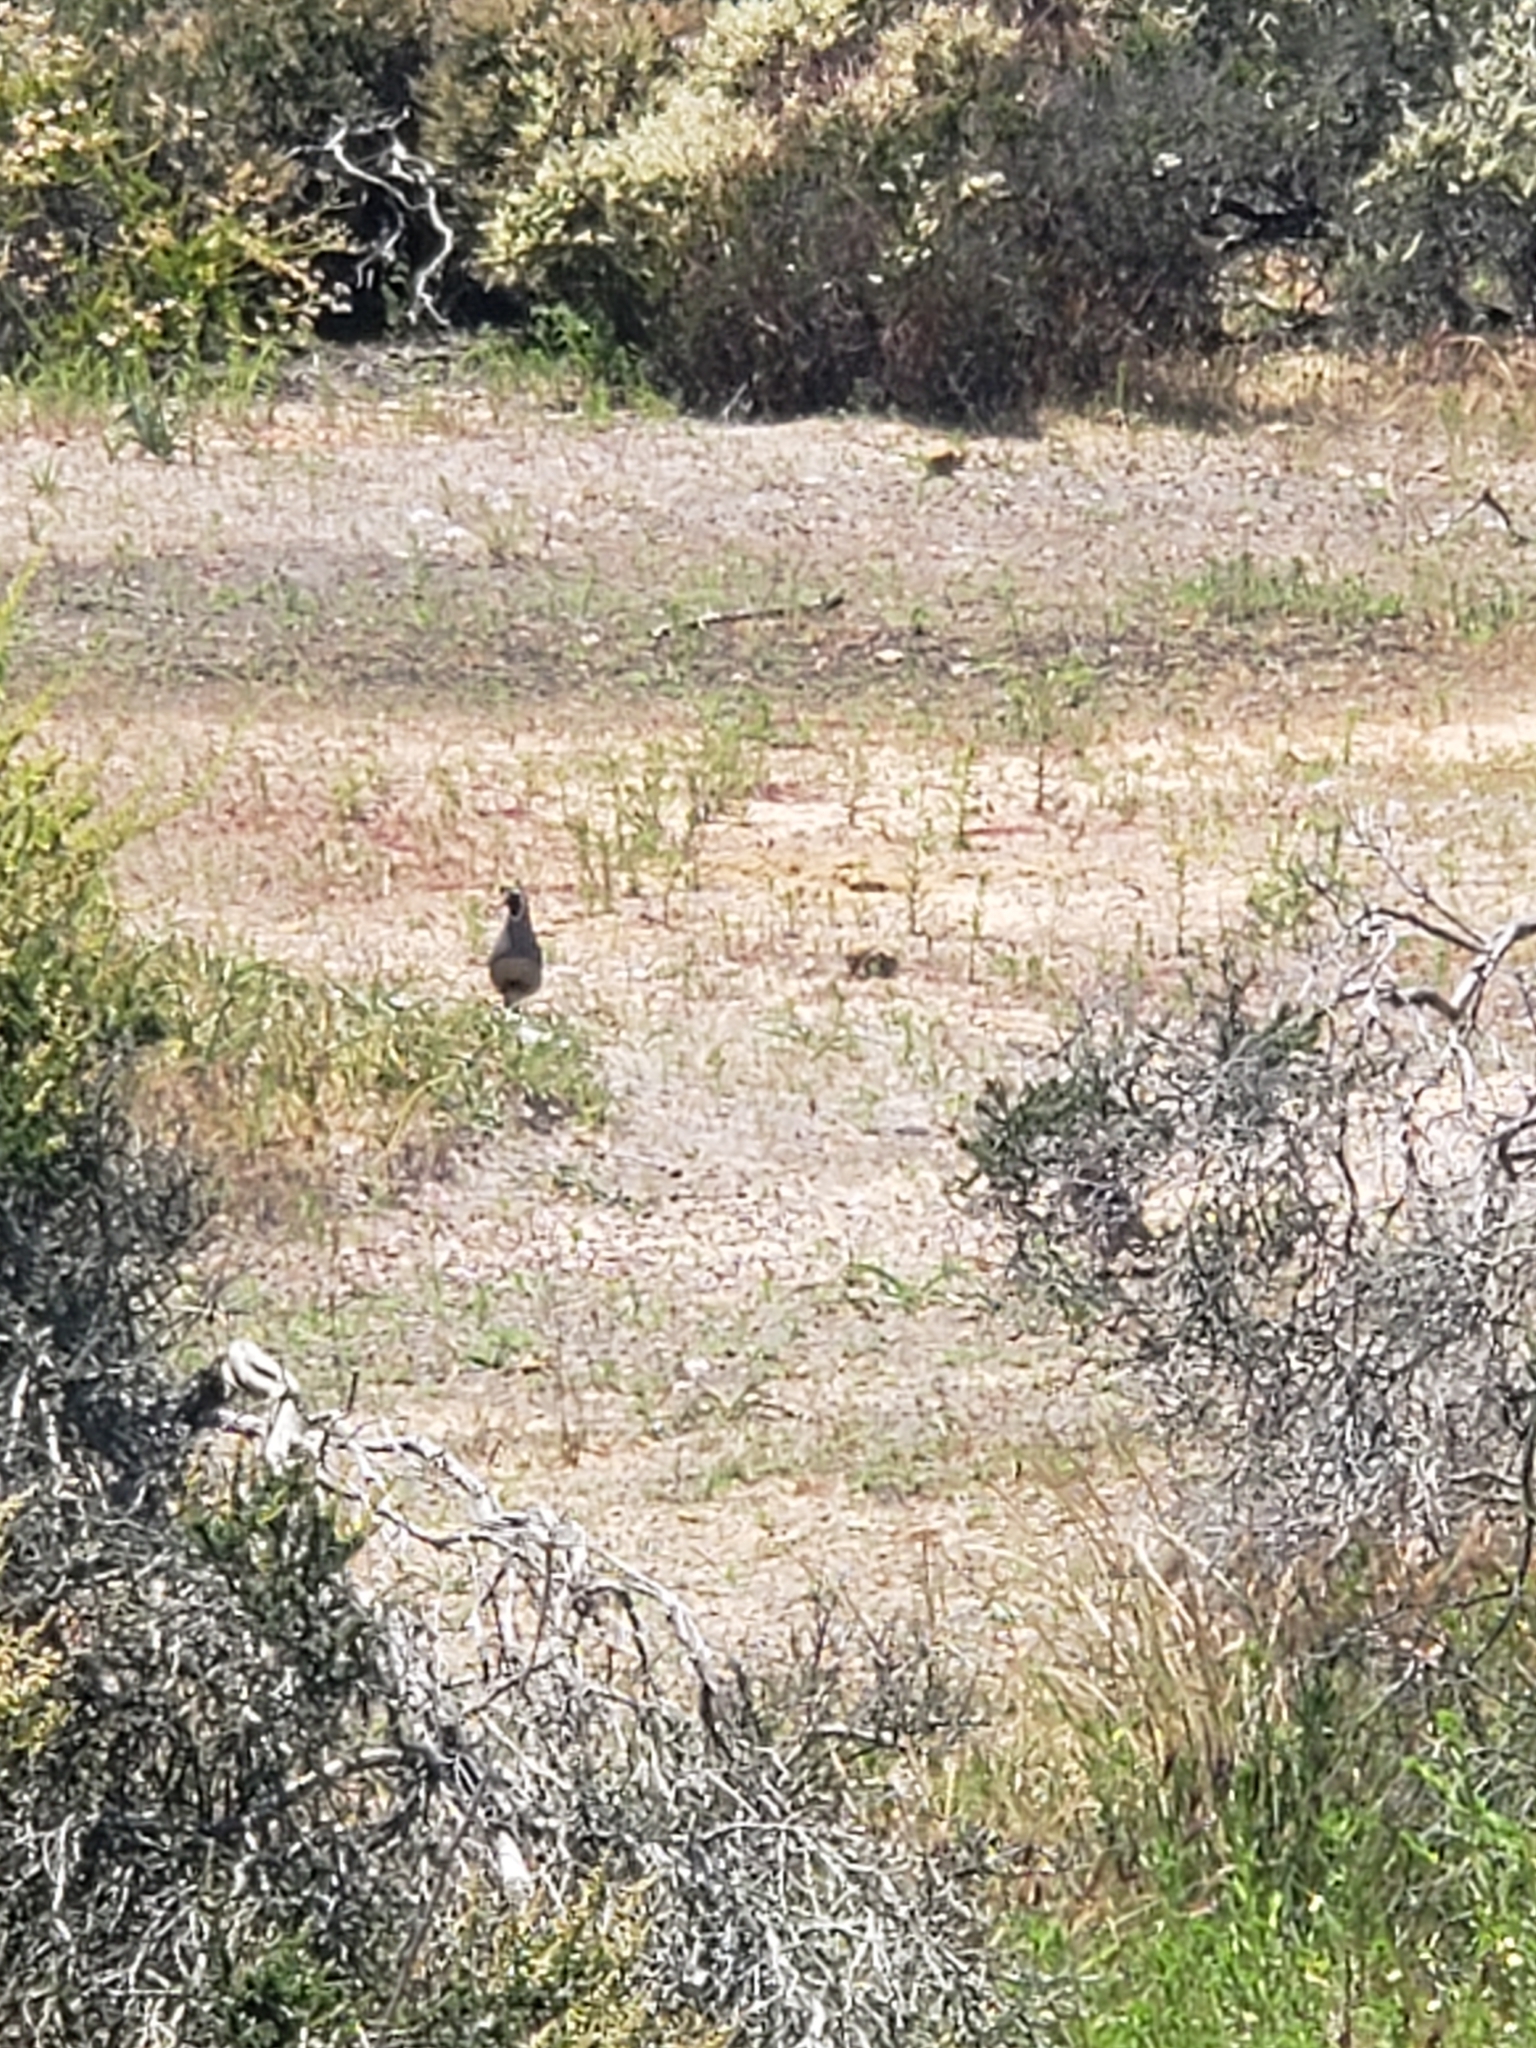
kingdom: Animalia
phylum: Chordata
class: Aves
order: Galliformes
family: Odontophoridae
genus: Callipepla
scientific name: Callipepla californica
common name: California quail
